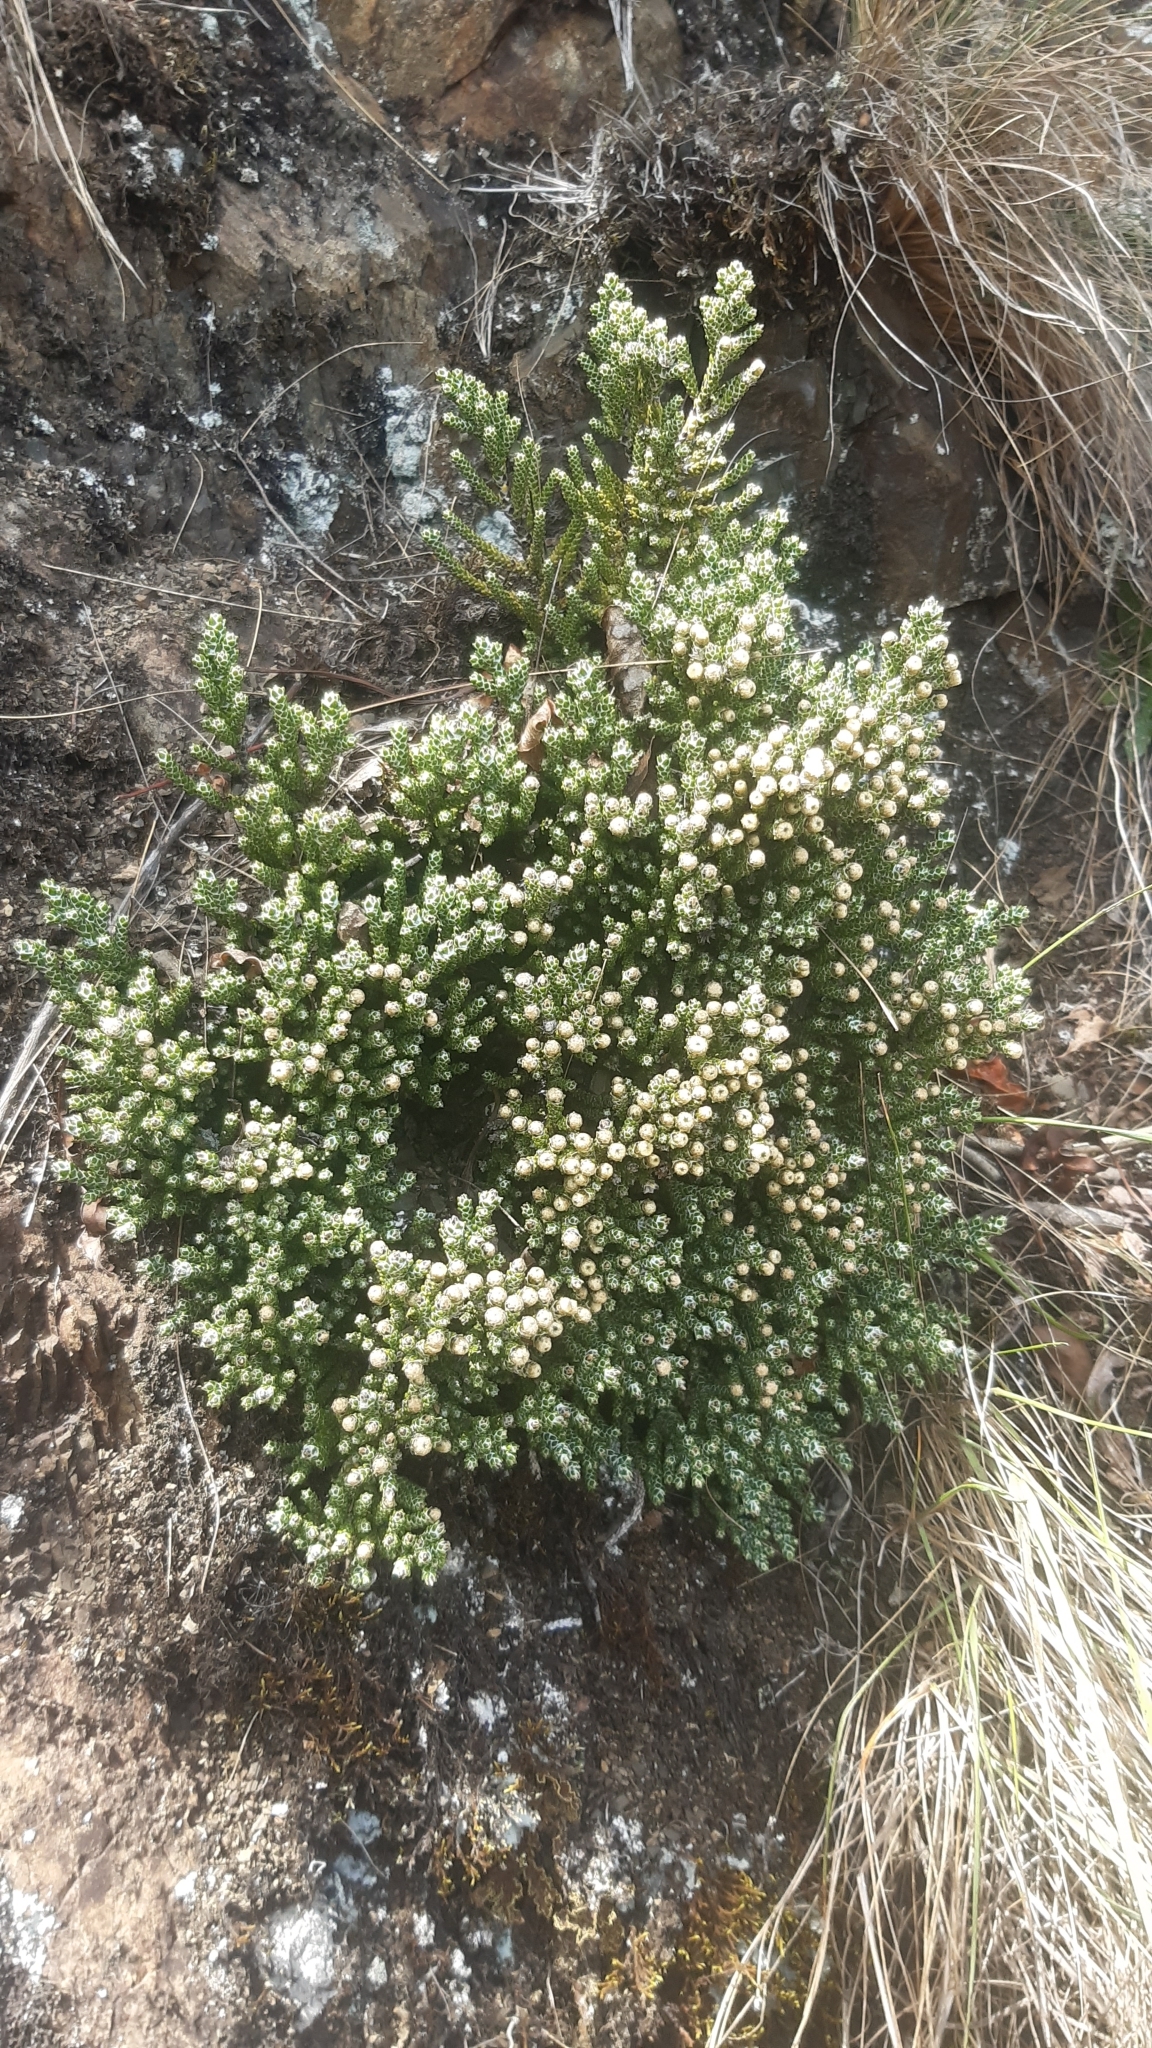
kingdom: Plantae
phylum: Tracheophyta
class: Magnoliopsida
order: Asterales
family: Asteraceae
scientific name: Asteraceae
